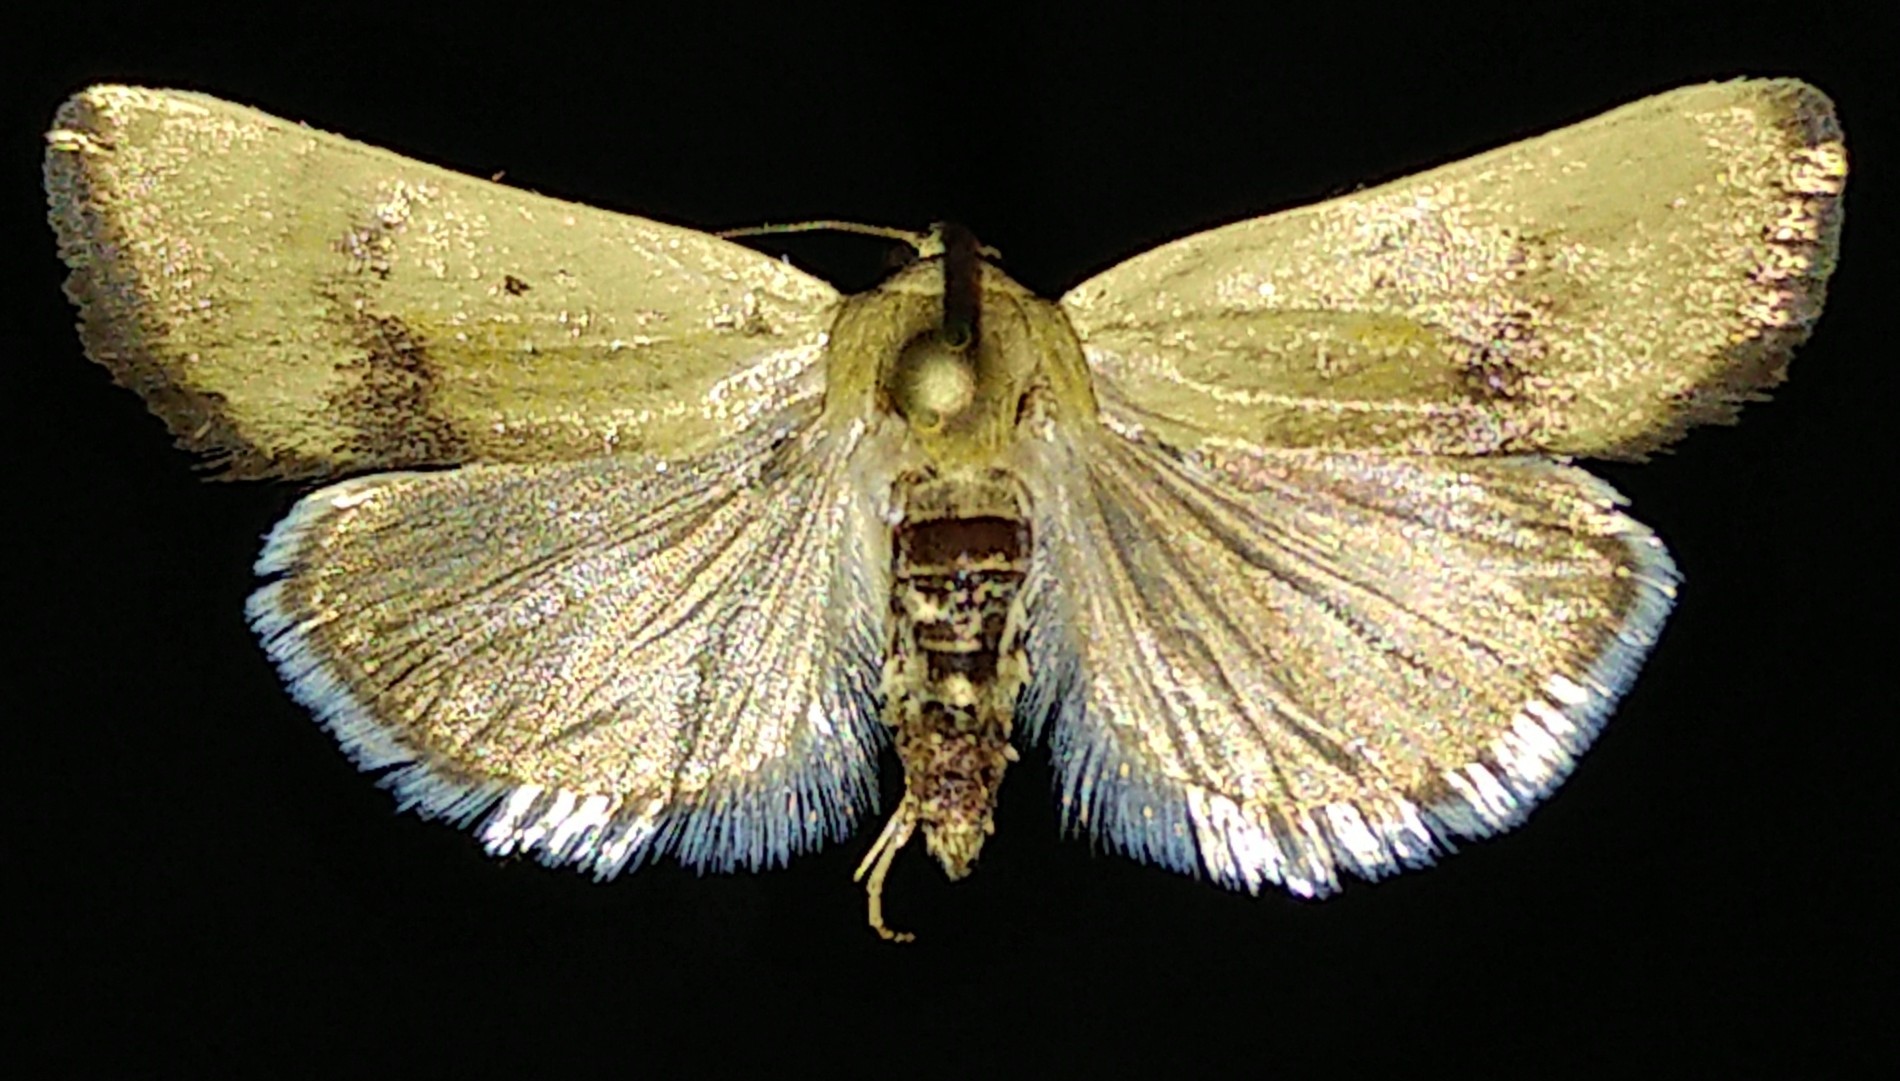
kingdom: Animalia
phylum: Arthropoda
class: Insecta
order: Lepidoptera
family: Noctuidae
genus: Acontia
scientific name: Acontia tortricina
